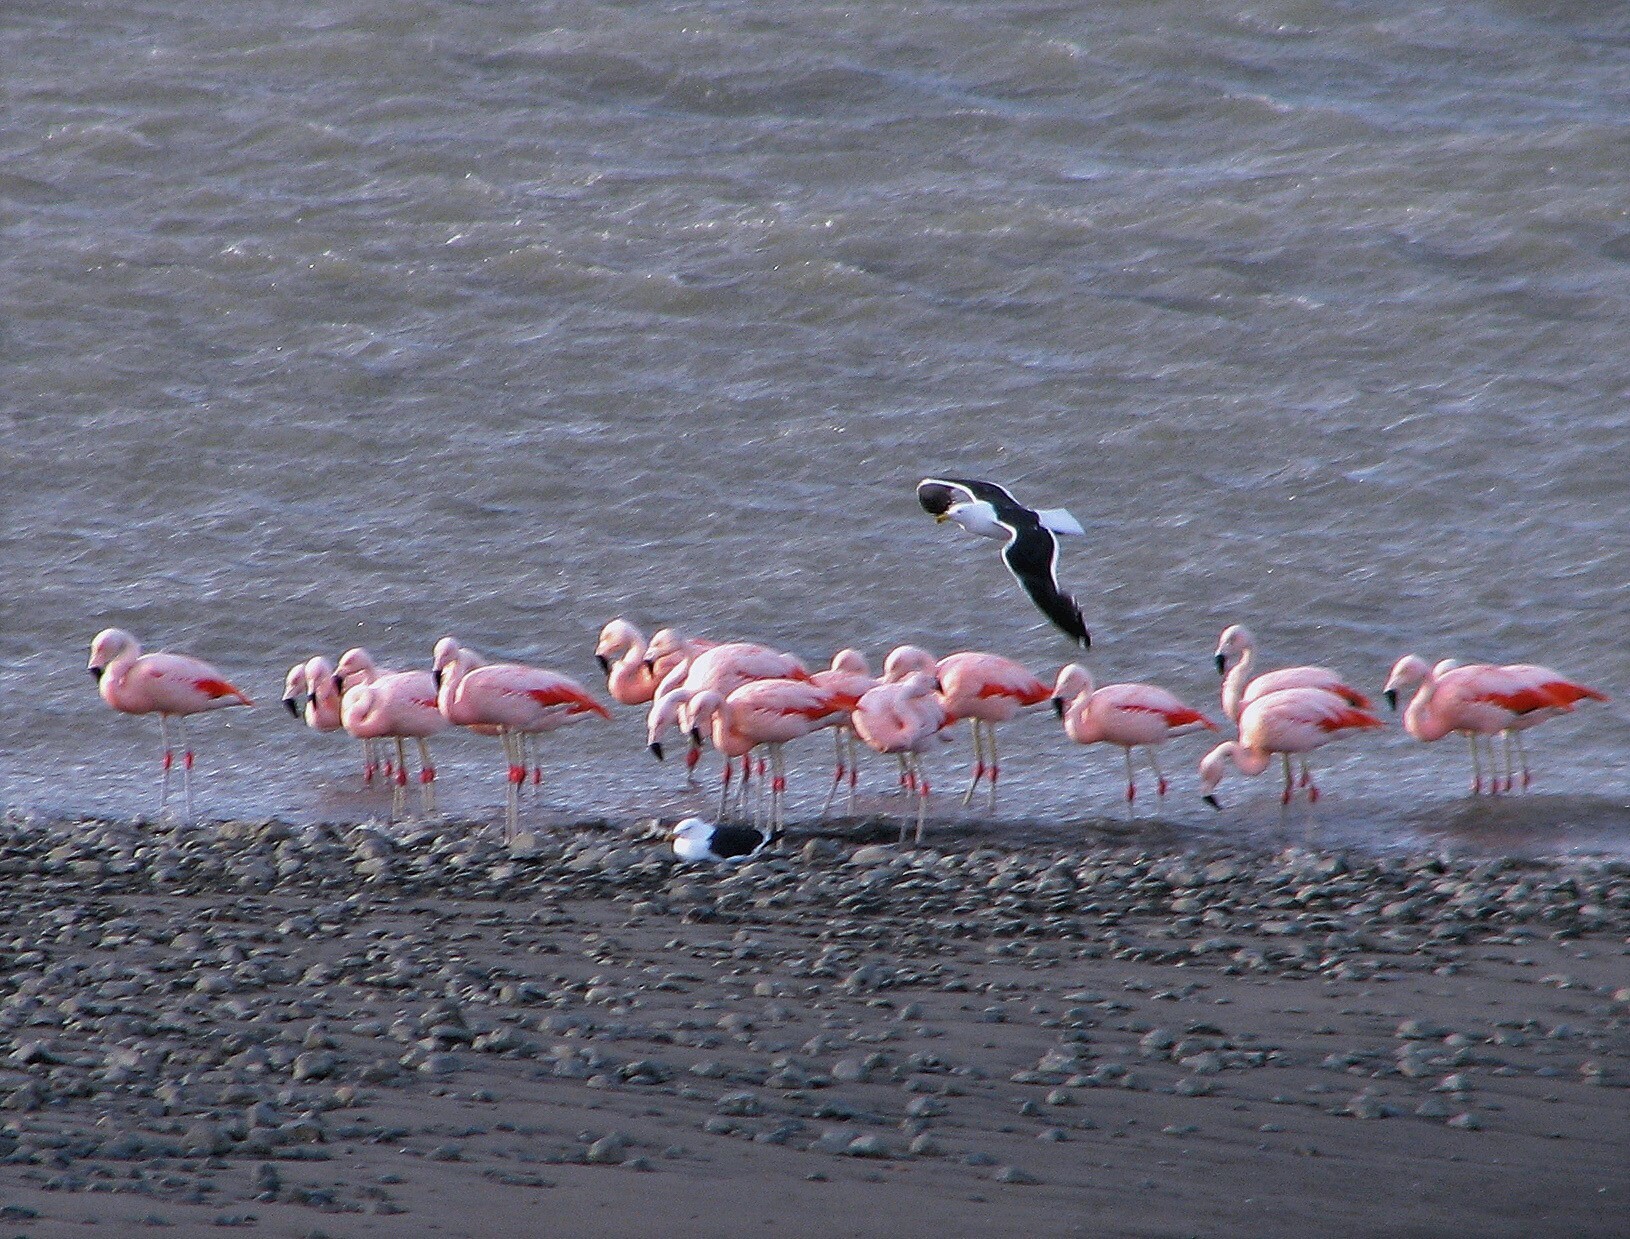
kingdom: Animalia
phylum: Chordata
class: Aves
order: Phoenicopteriformes
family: Phoenicopteridae
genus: Phoenicopterus
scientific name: Phoenicopterus chilensis
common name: Chilean flamingo
